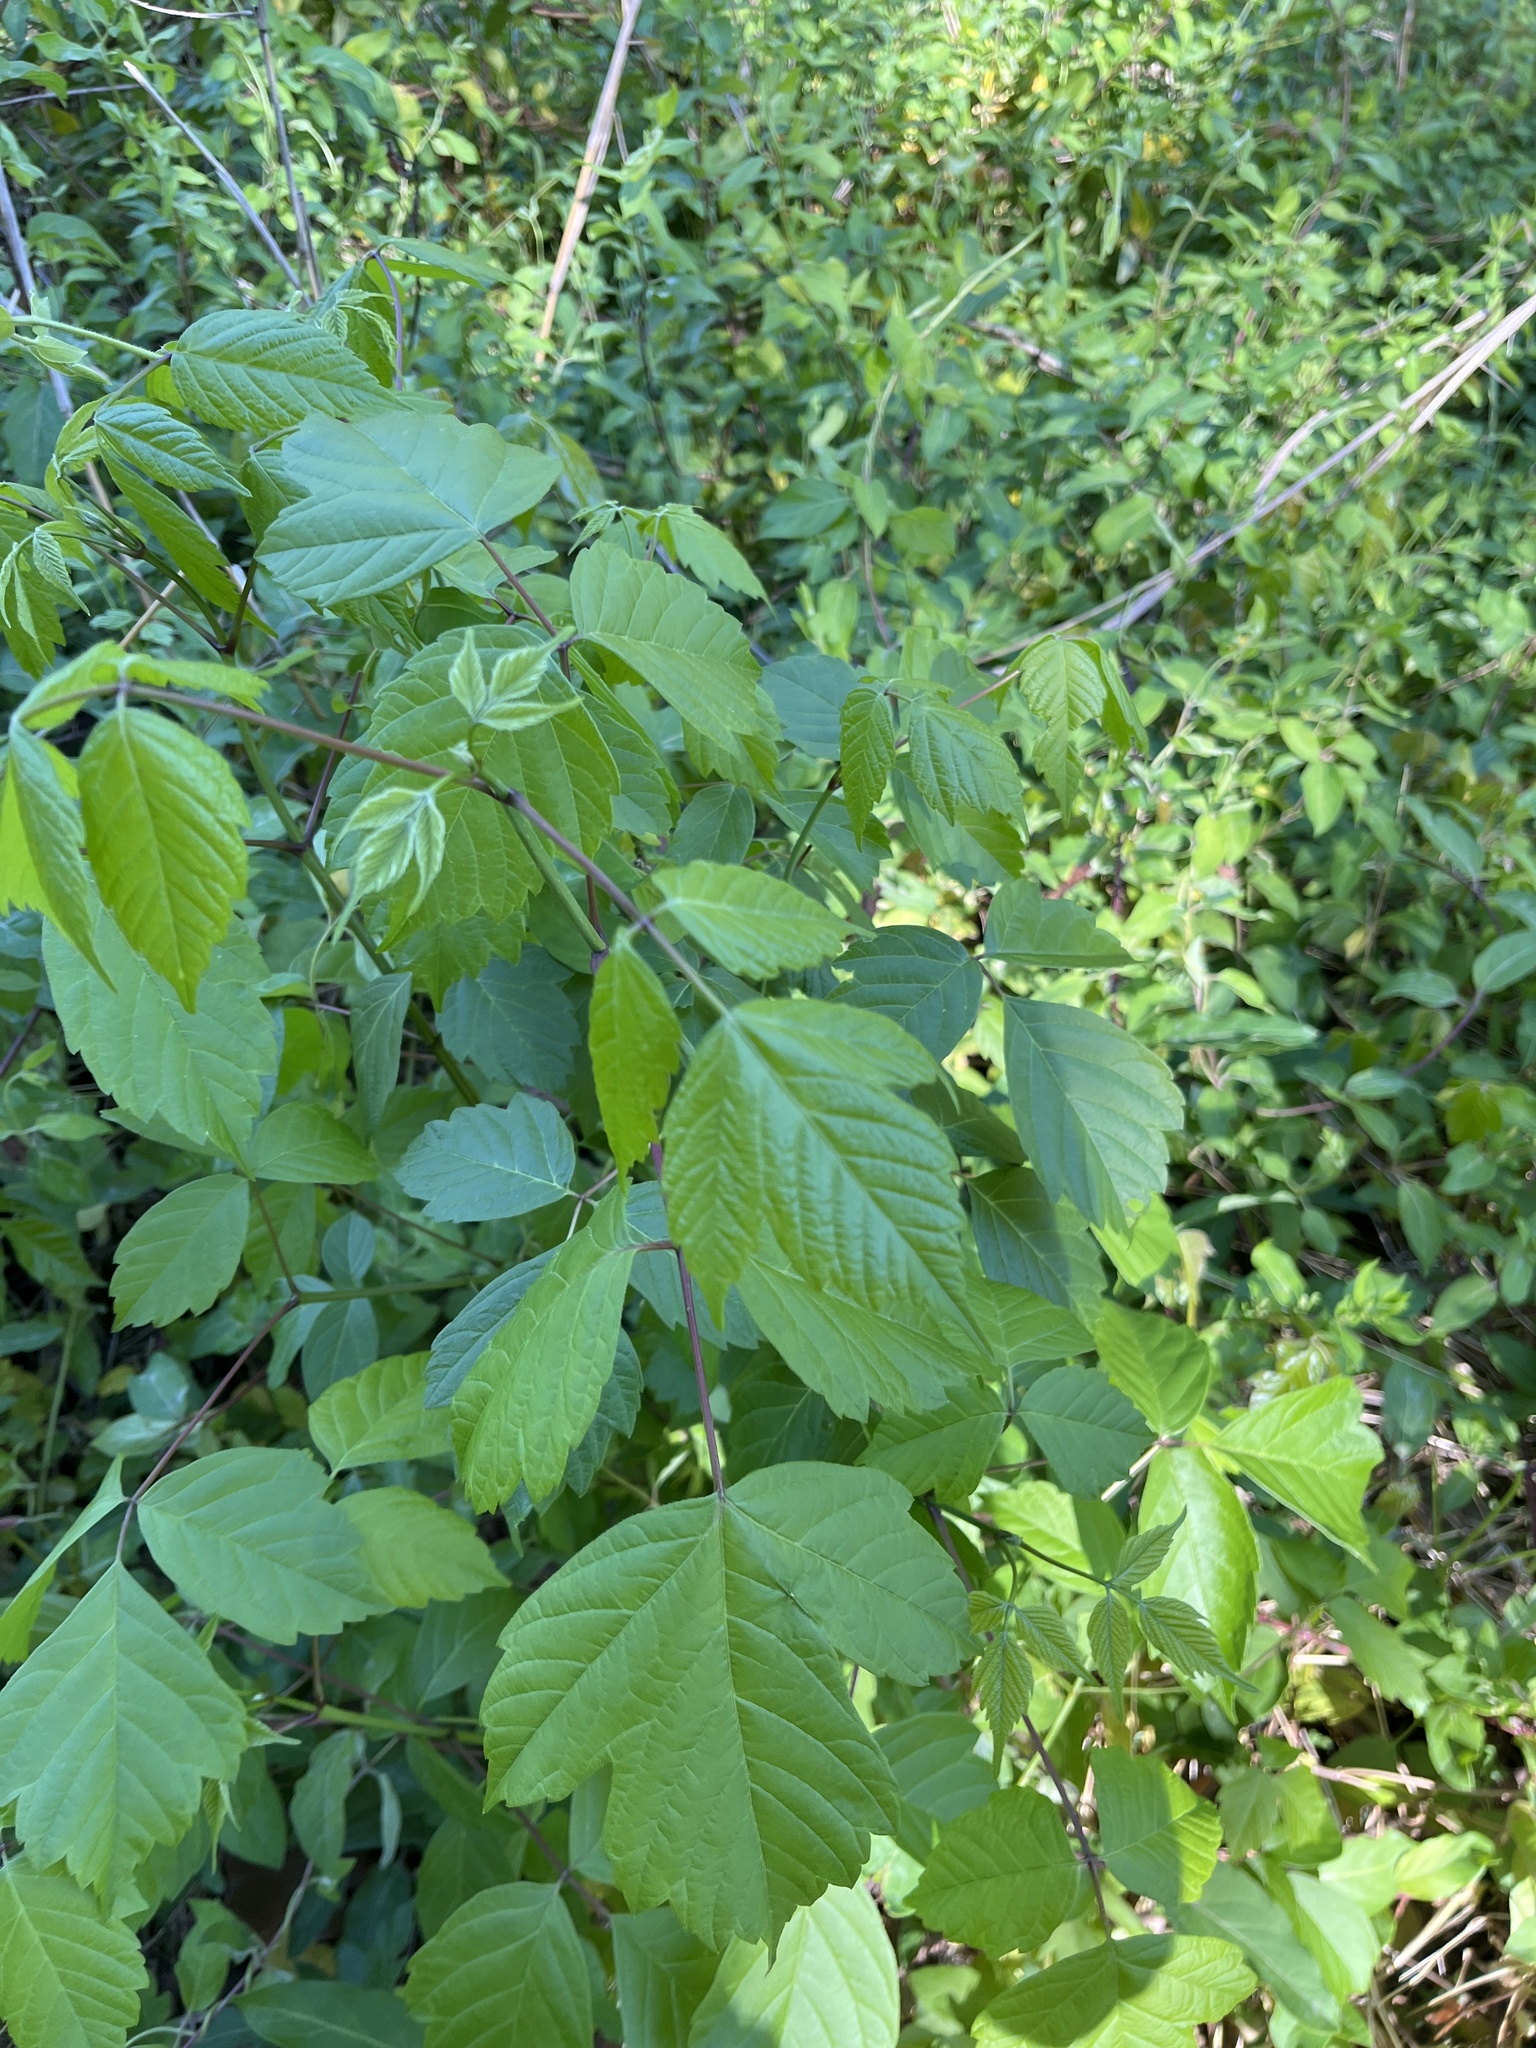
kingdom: Plantae
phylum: Tracheophyta
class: Magnoliopsida
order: Sapindales
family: Sapindaceae
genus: Acer
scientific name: Acer negundo
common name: Ashleaf maple
